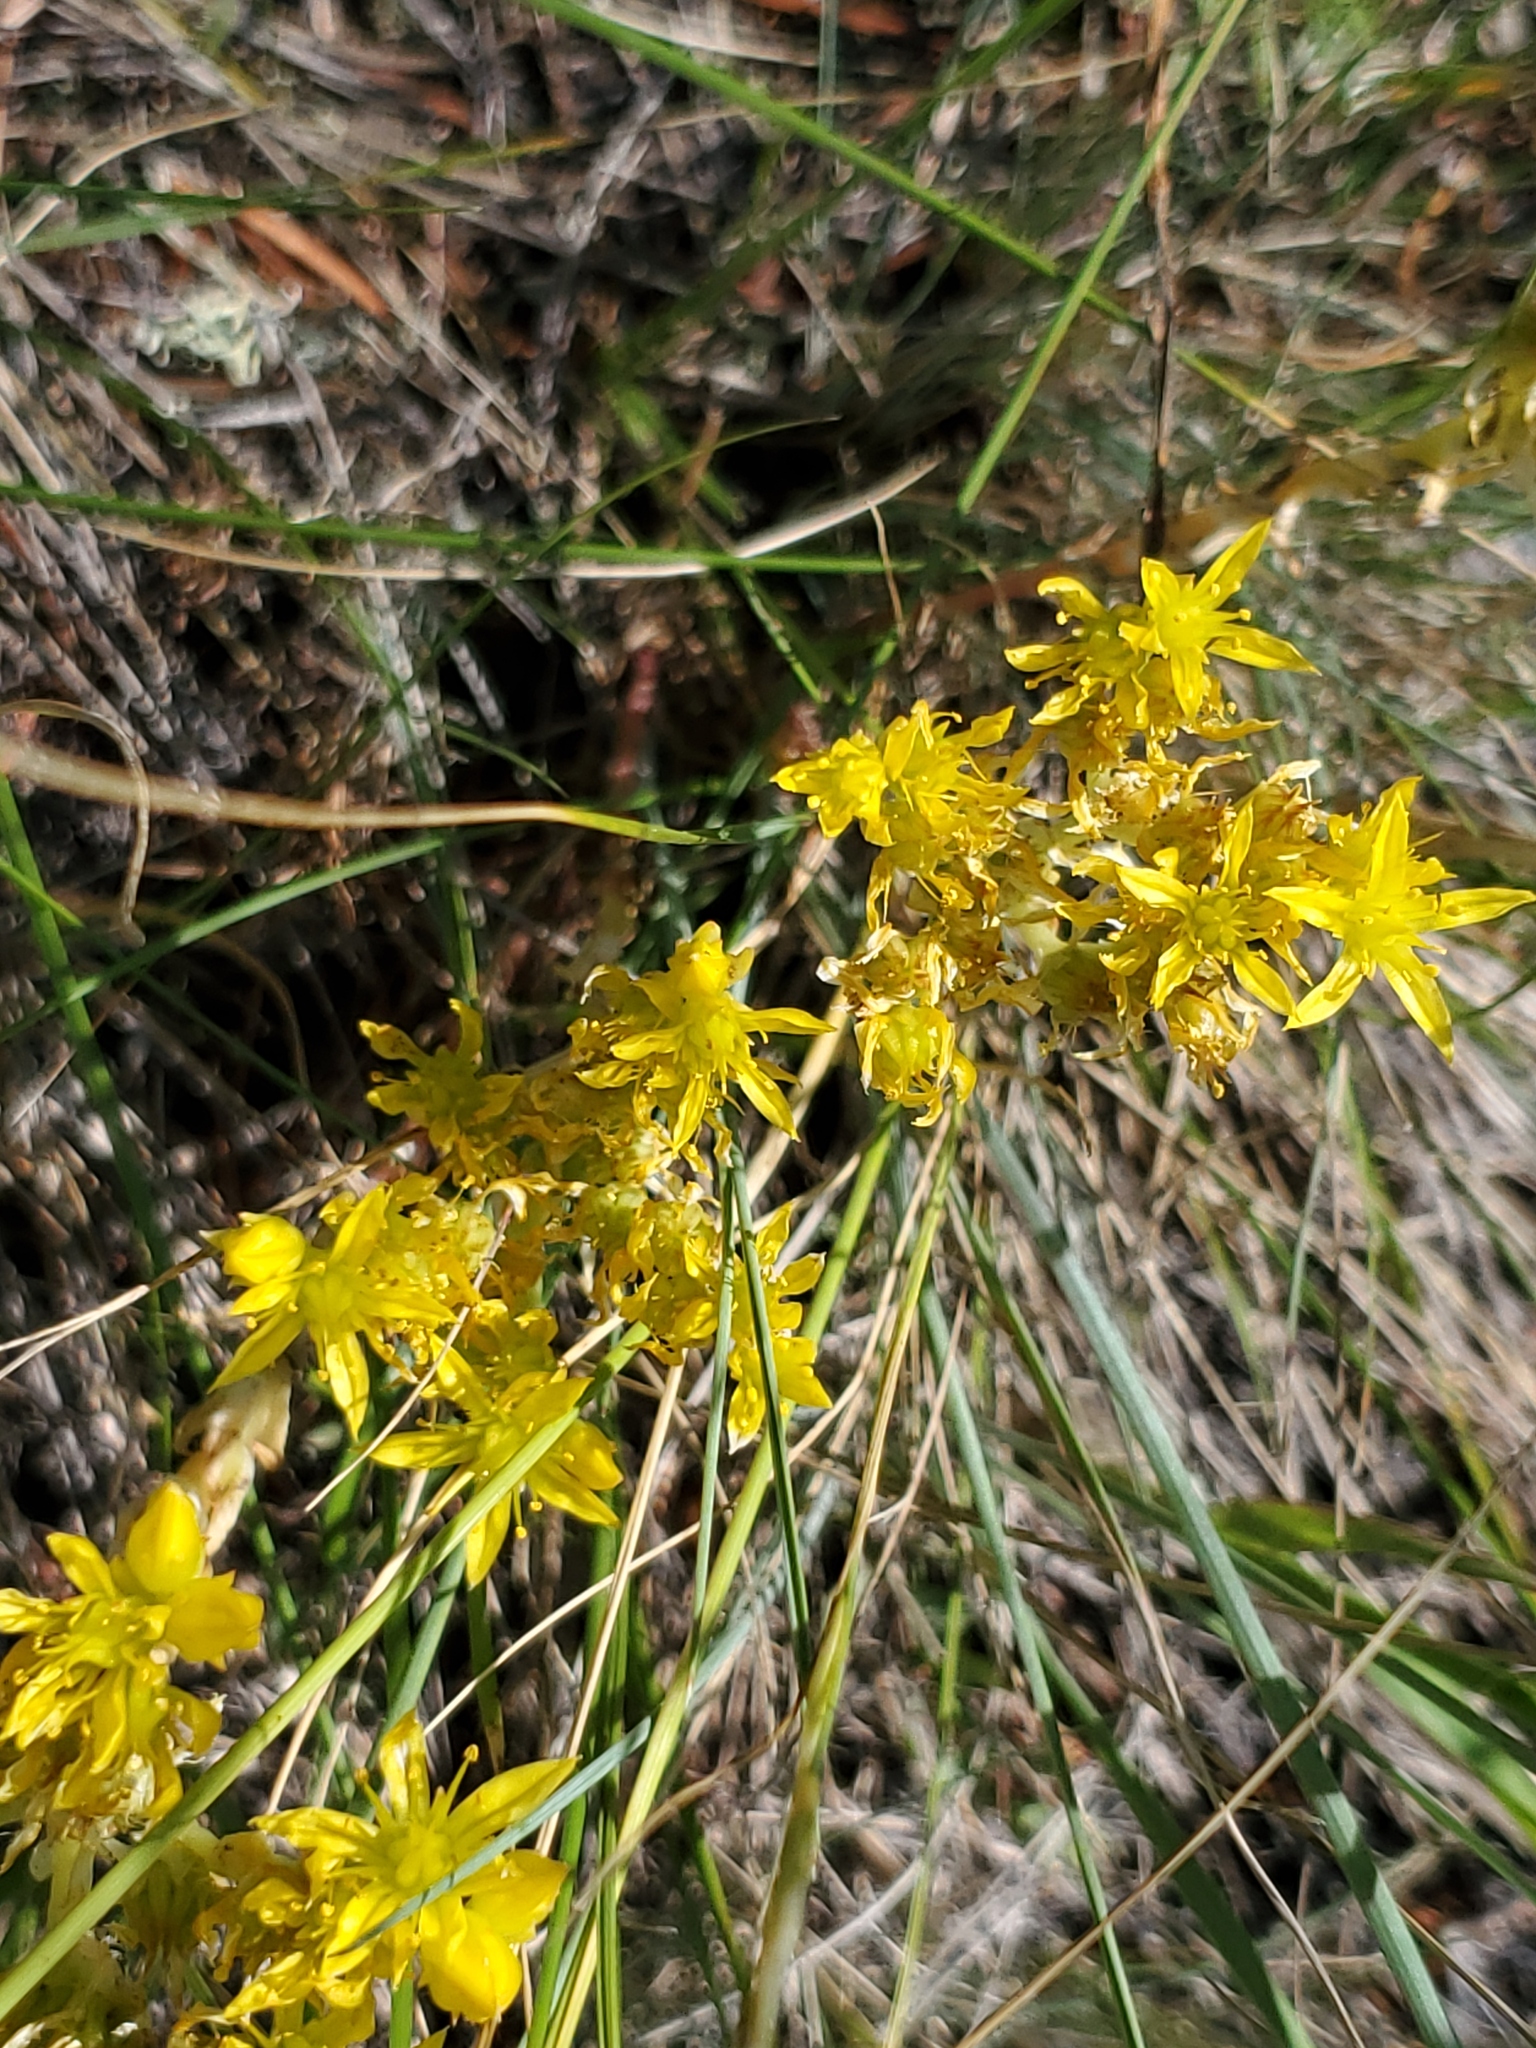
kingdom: Plantae
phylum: Tracheophyta
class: Magnoliopsida
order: Saxifragales
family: Crassulaceae
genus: Sedum
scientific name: Sedum lanceolatum
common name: Common stonecrop
